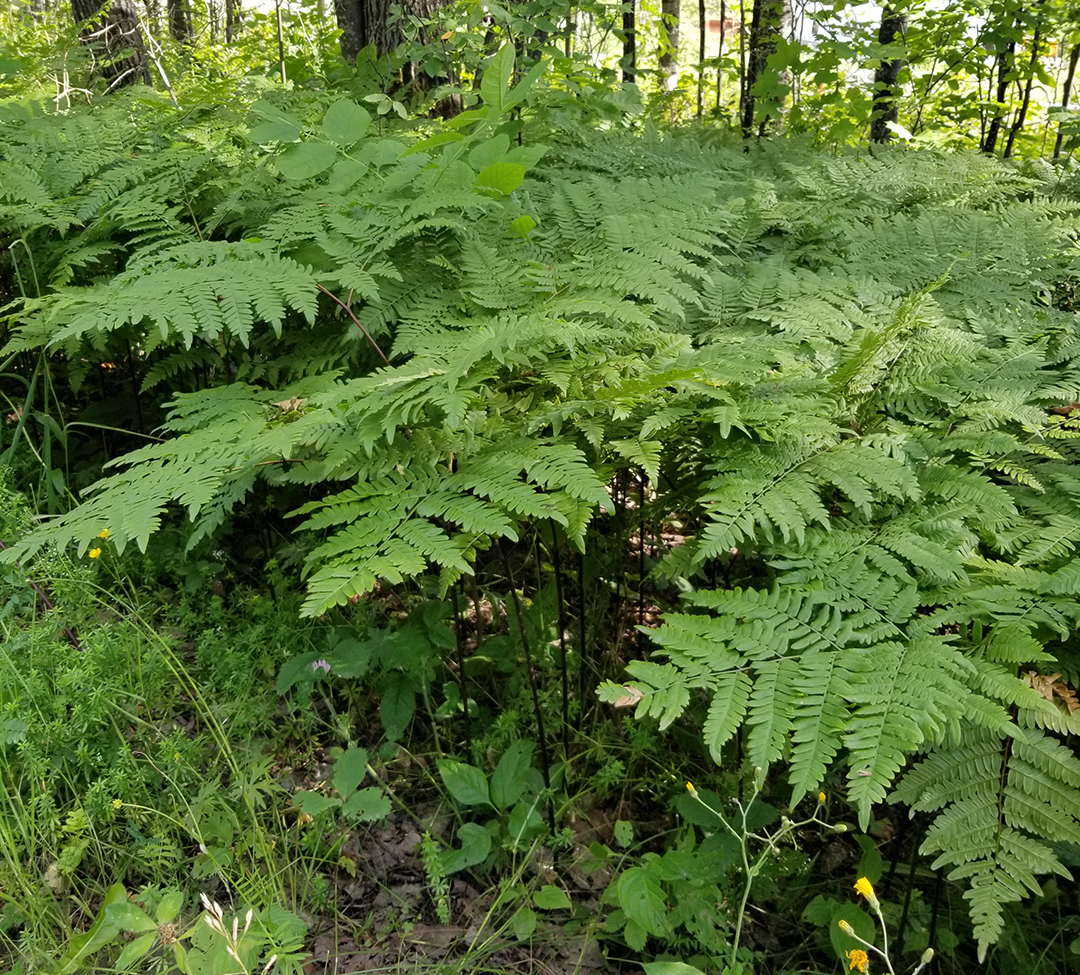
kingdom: Plantae
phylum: Tracheophyta
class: Polypodiopsida
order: Polypodiales
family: Dennstaedtiaceae
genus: Pteridium
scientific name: Pteridium aquilinum
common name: Bracken
